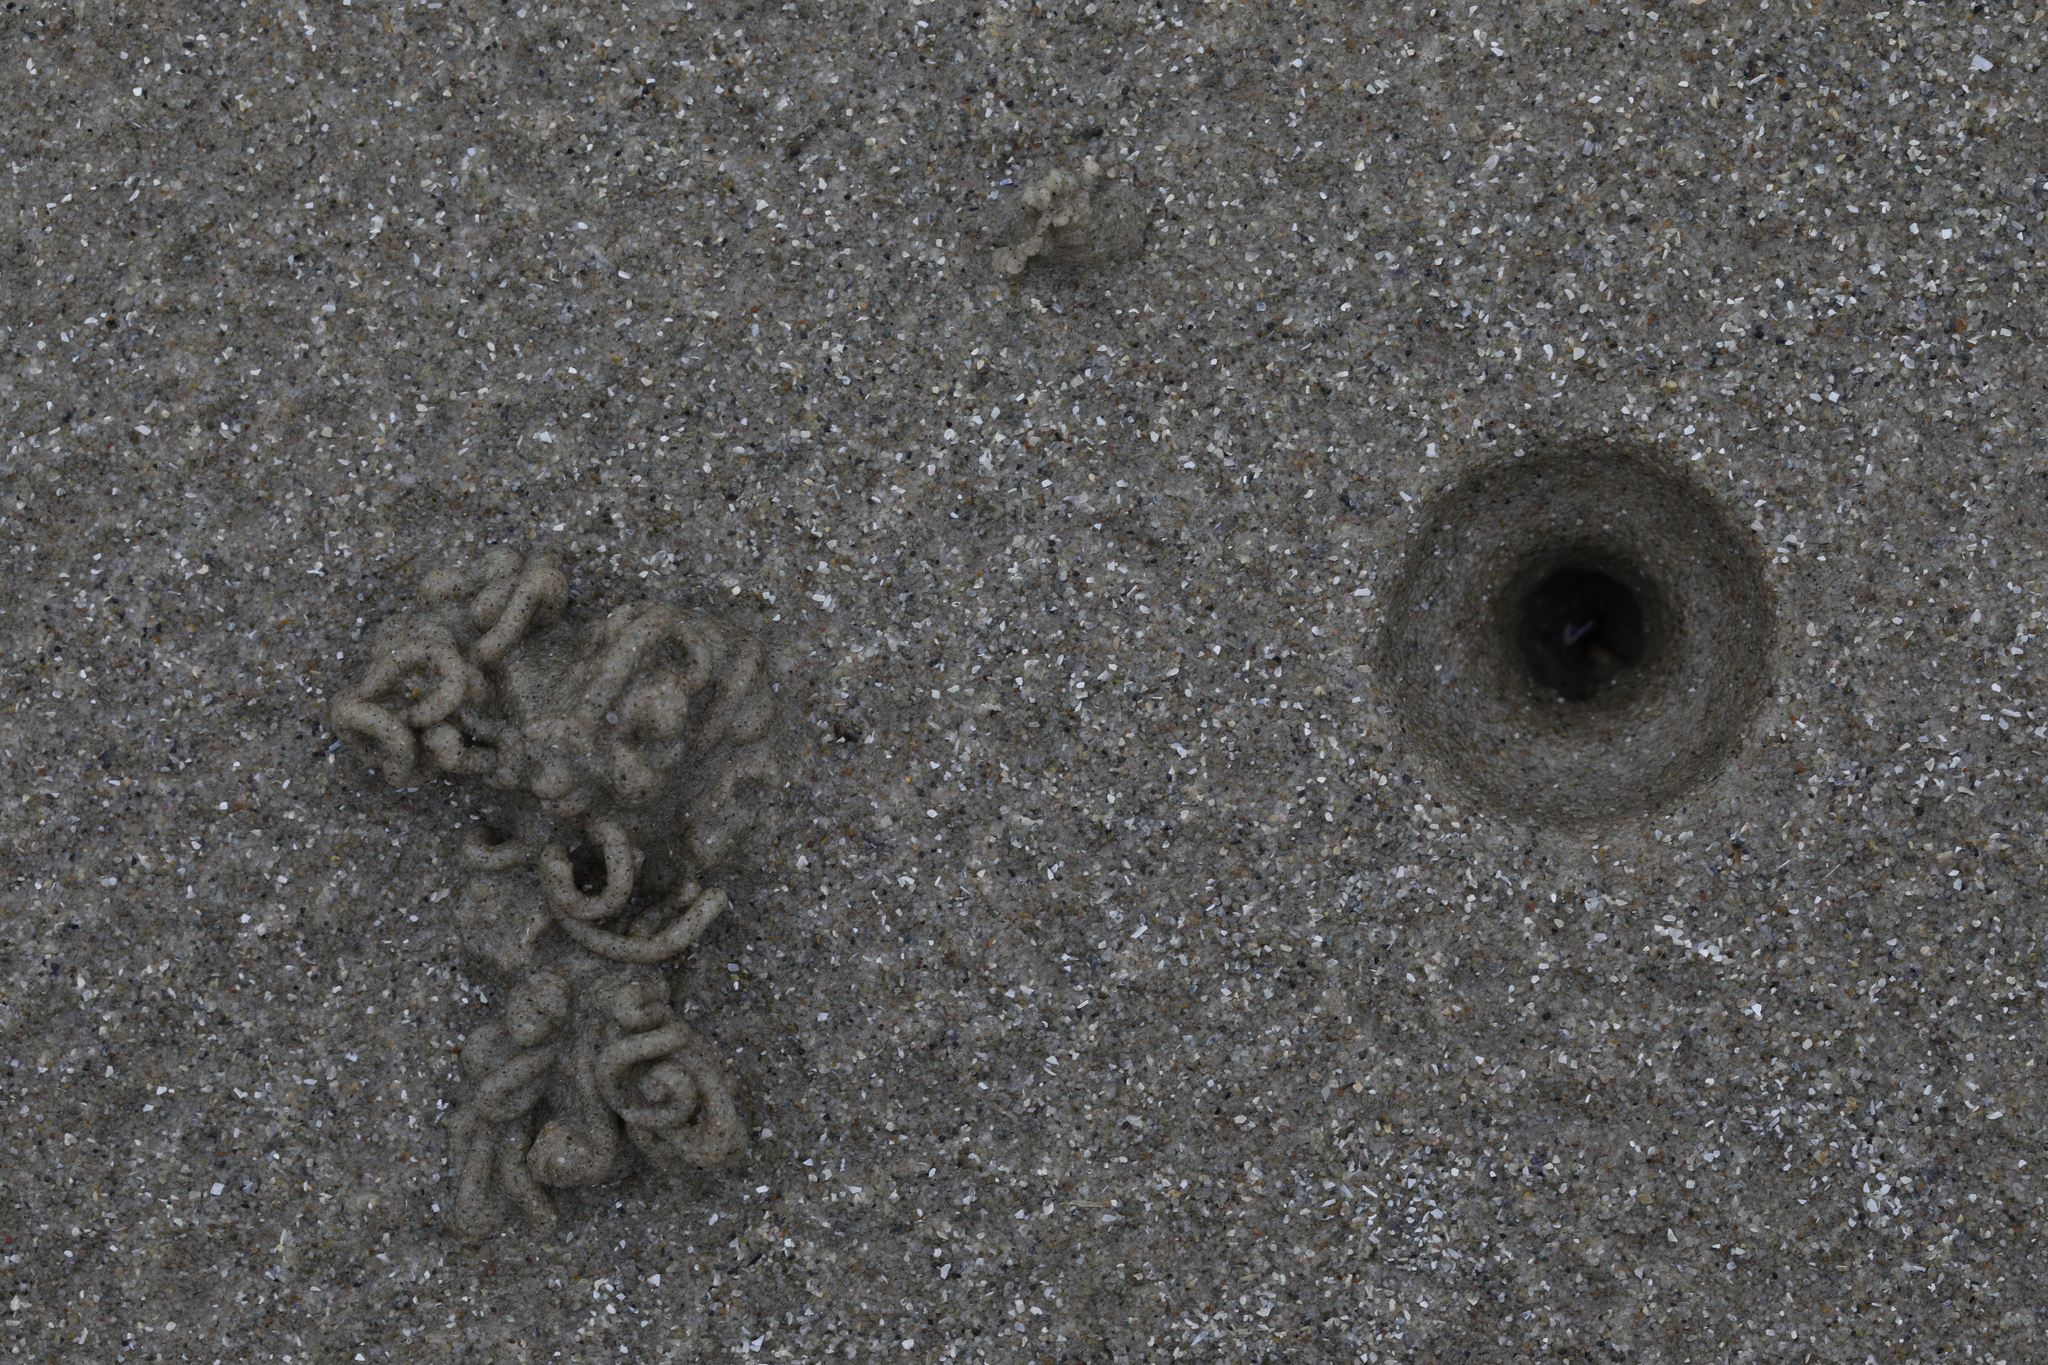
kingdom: Animalia
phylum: Annelida
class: Polychaeta
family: Arenicolidae
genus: Arenicola
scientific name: Arenicola marina
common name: Blow lugworm
